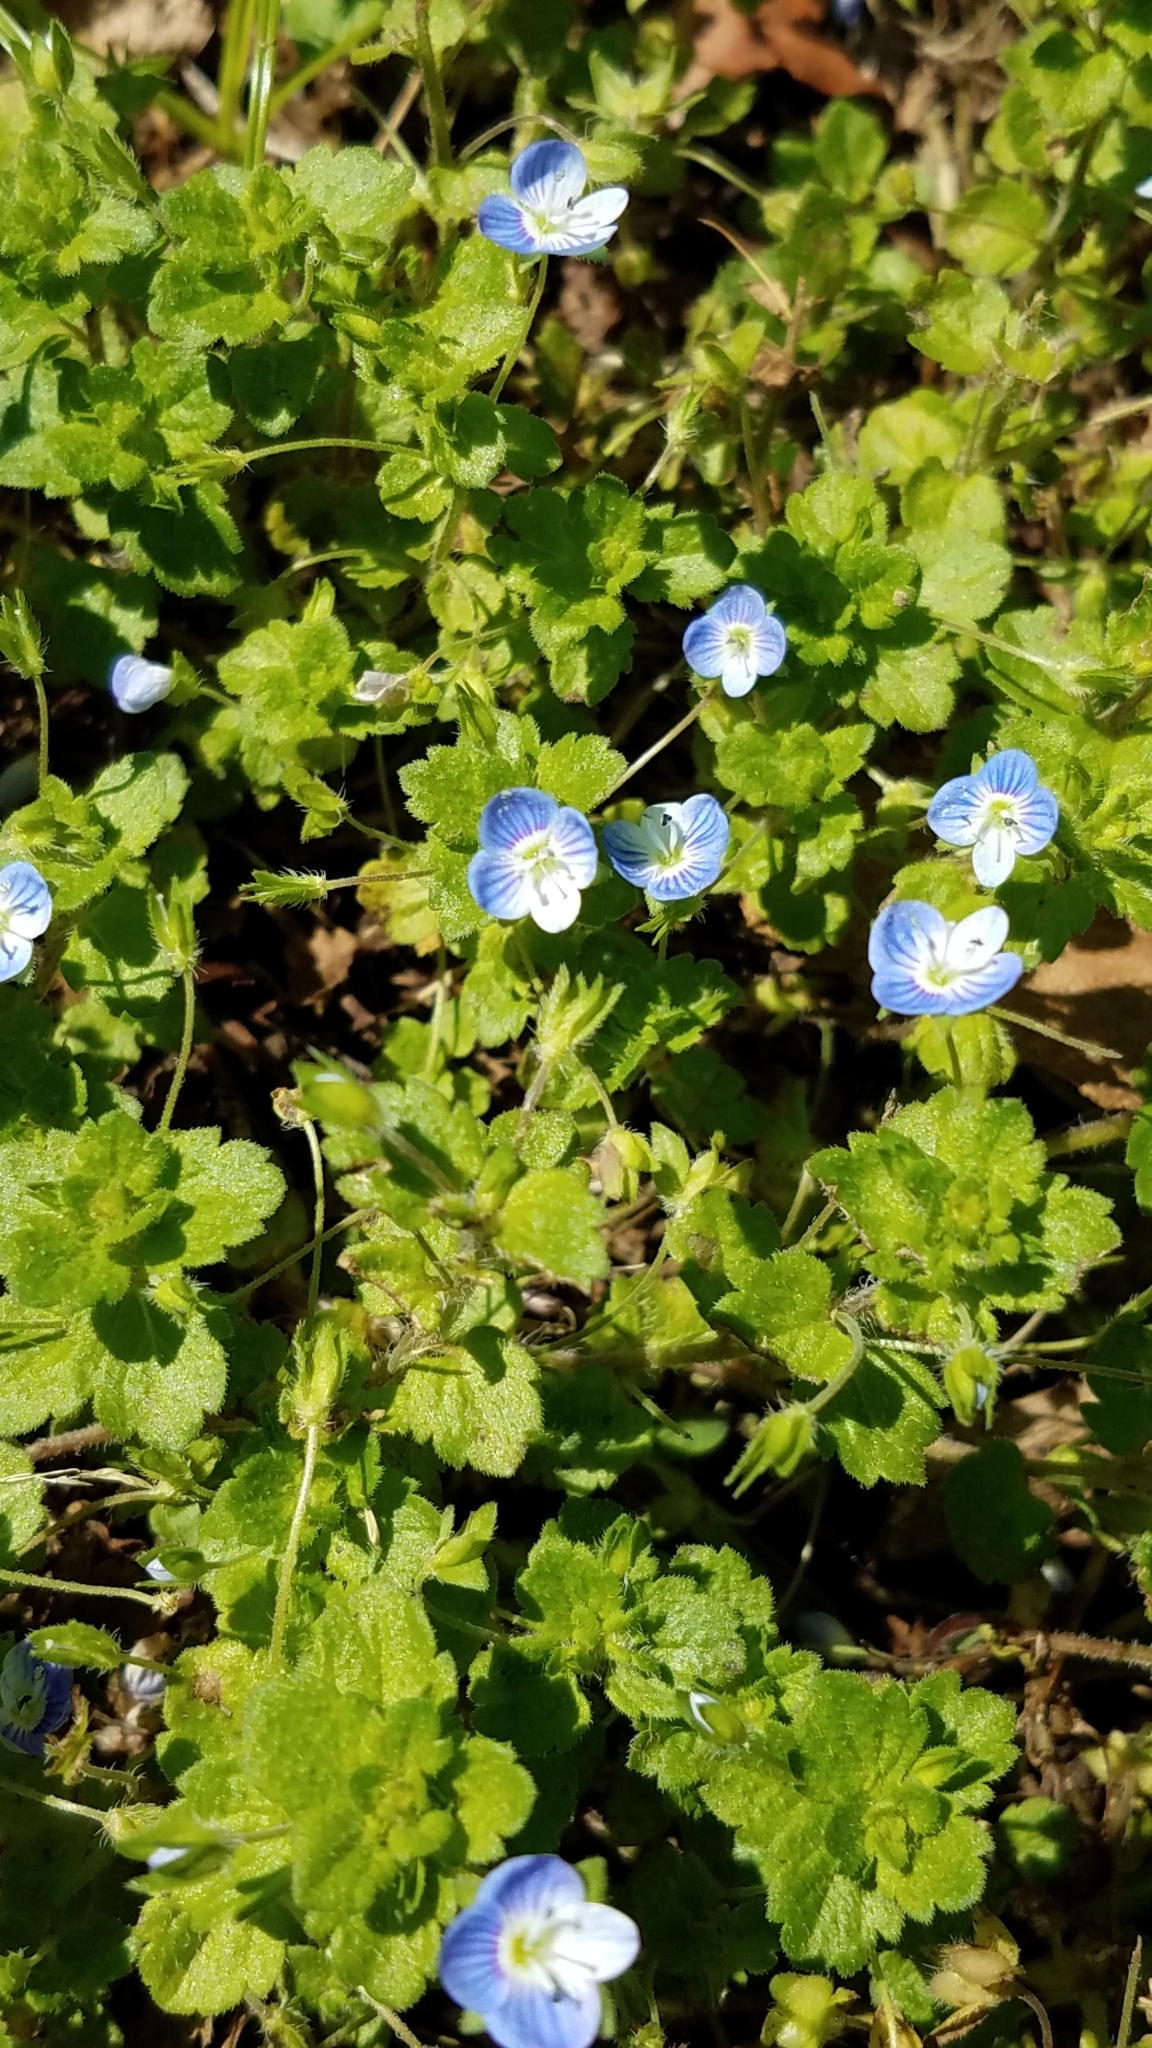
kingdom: Plantae
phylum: Tracheophyta
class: Magnoliopsida
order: Lamiales
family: Plantaginaceae
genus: Veronica
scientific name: Veronica persica
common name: Common field-speedwell
